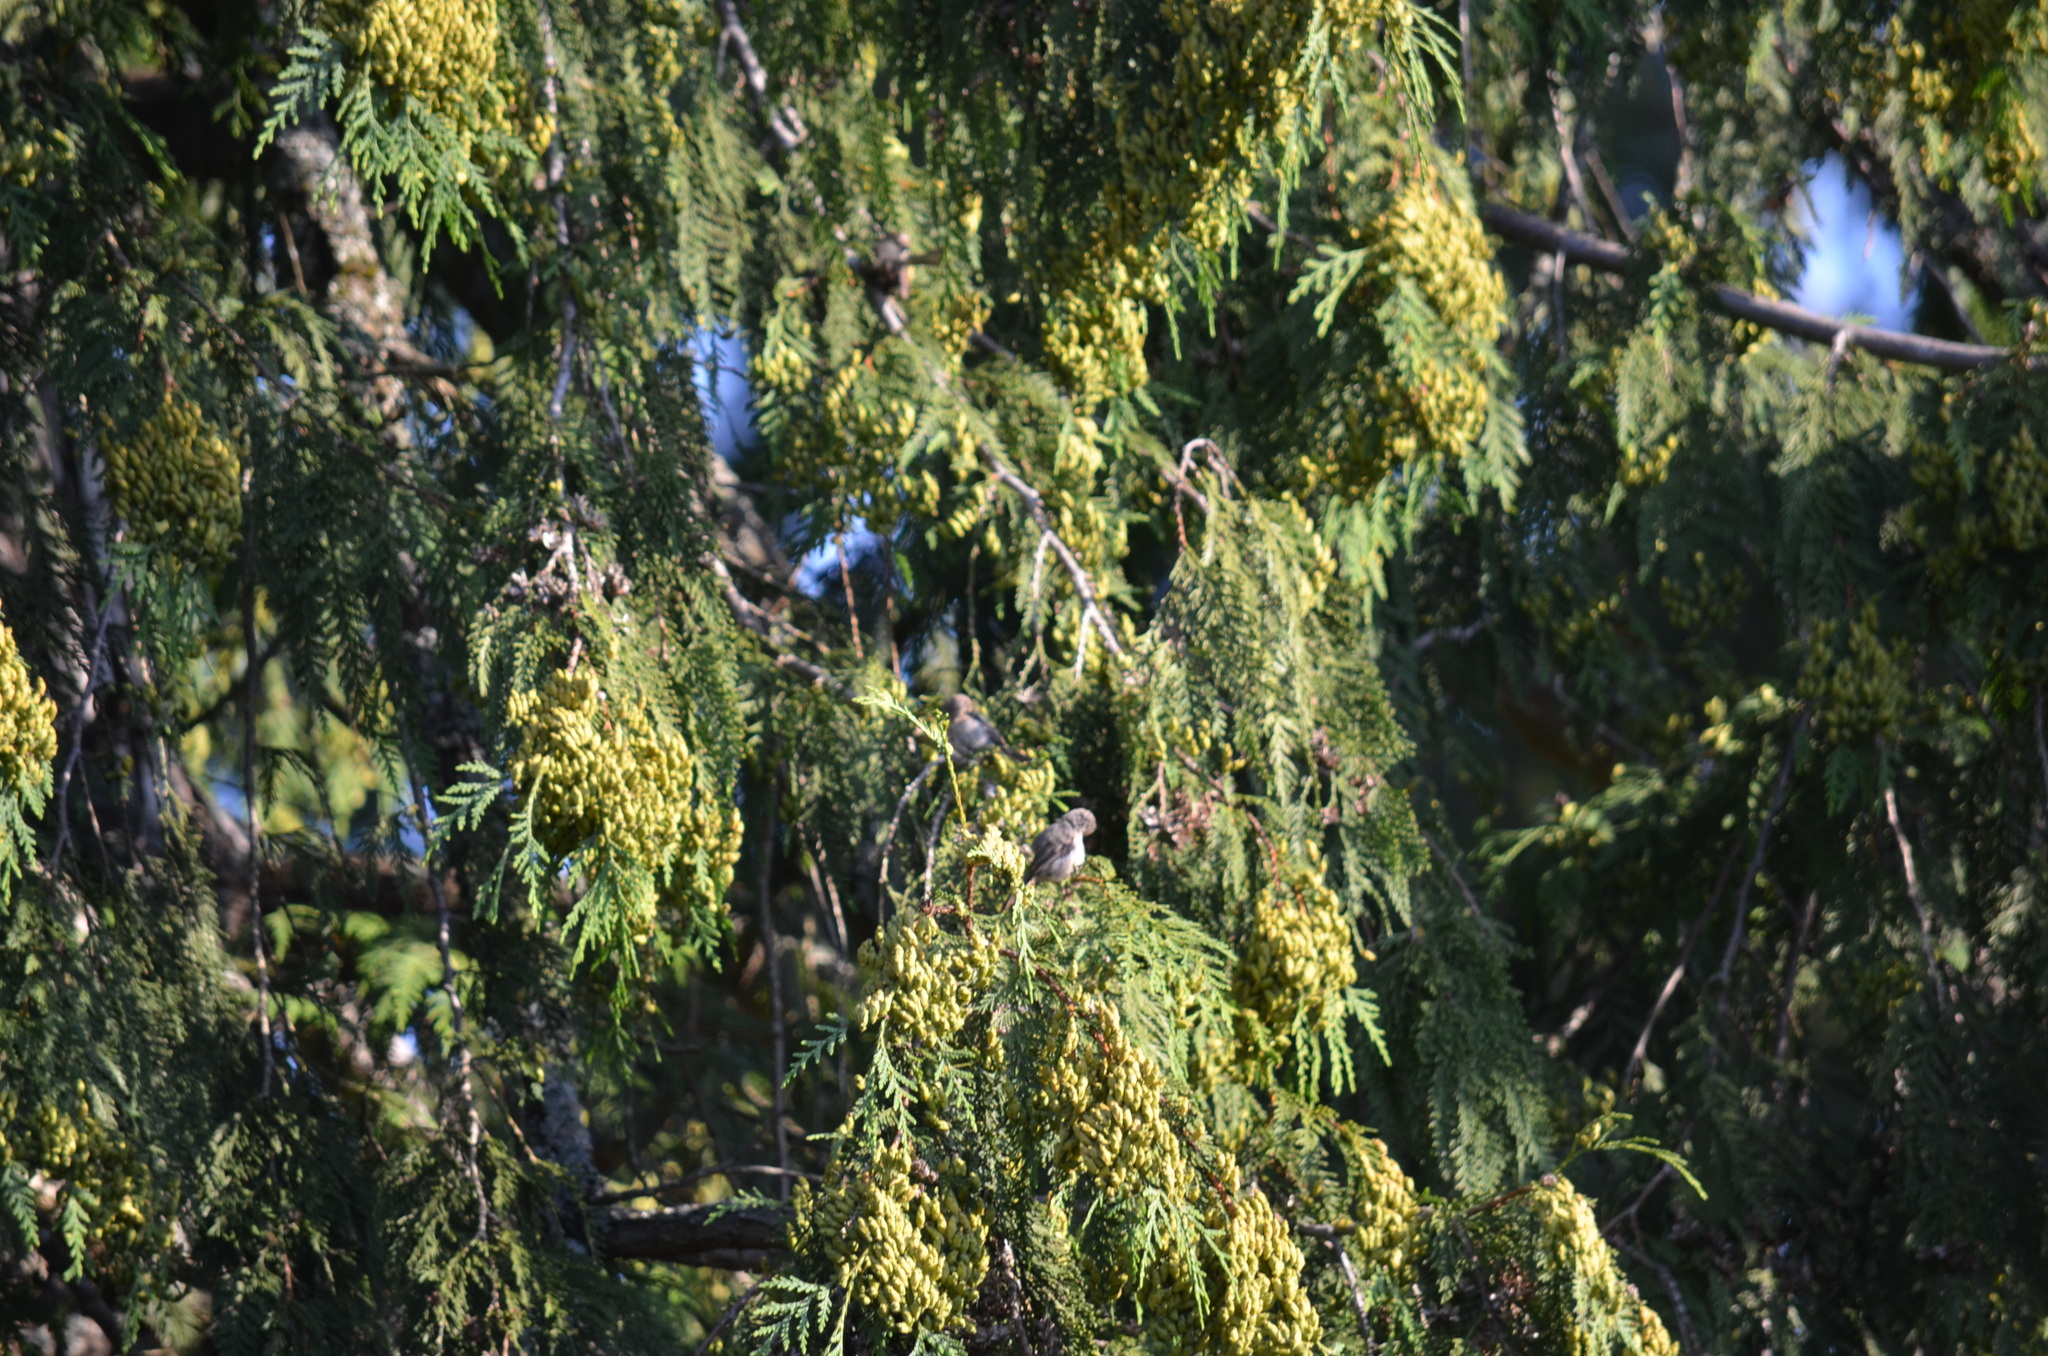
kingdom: Animalia
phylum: Chordata
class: Aves
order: Passeriformes
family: Aegithalidae
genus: Psaltriparus
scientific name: Psaltriparus minimus
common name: American bushtit
